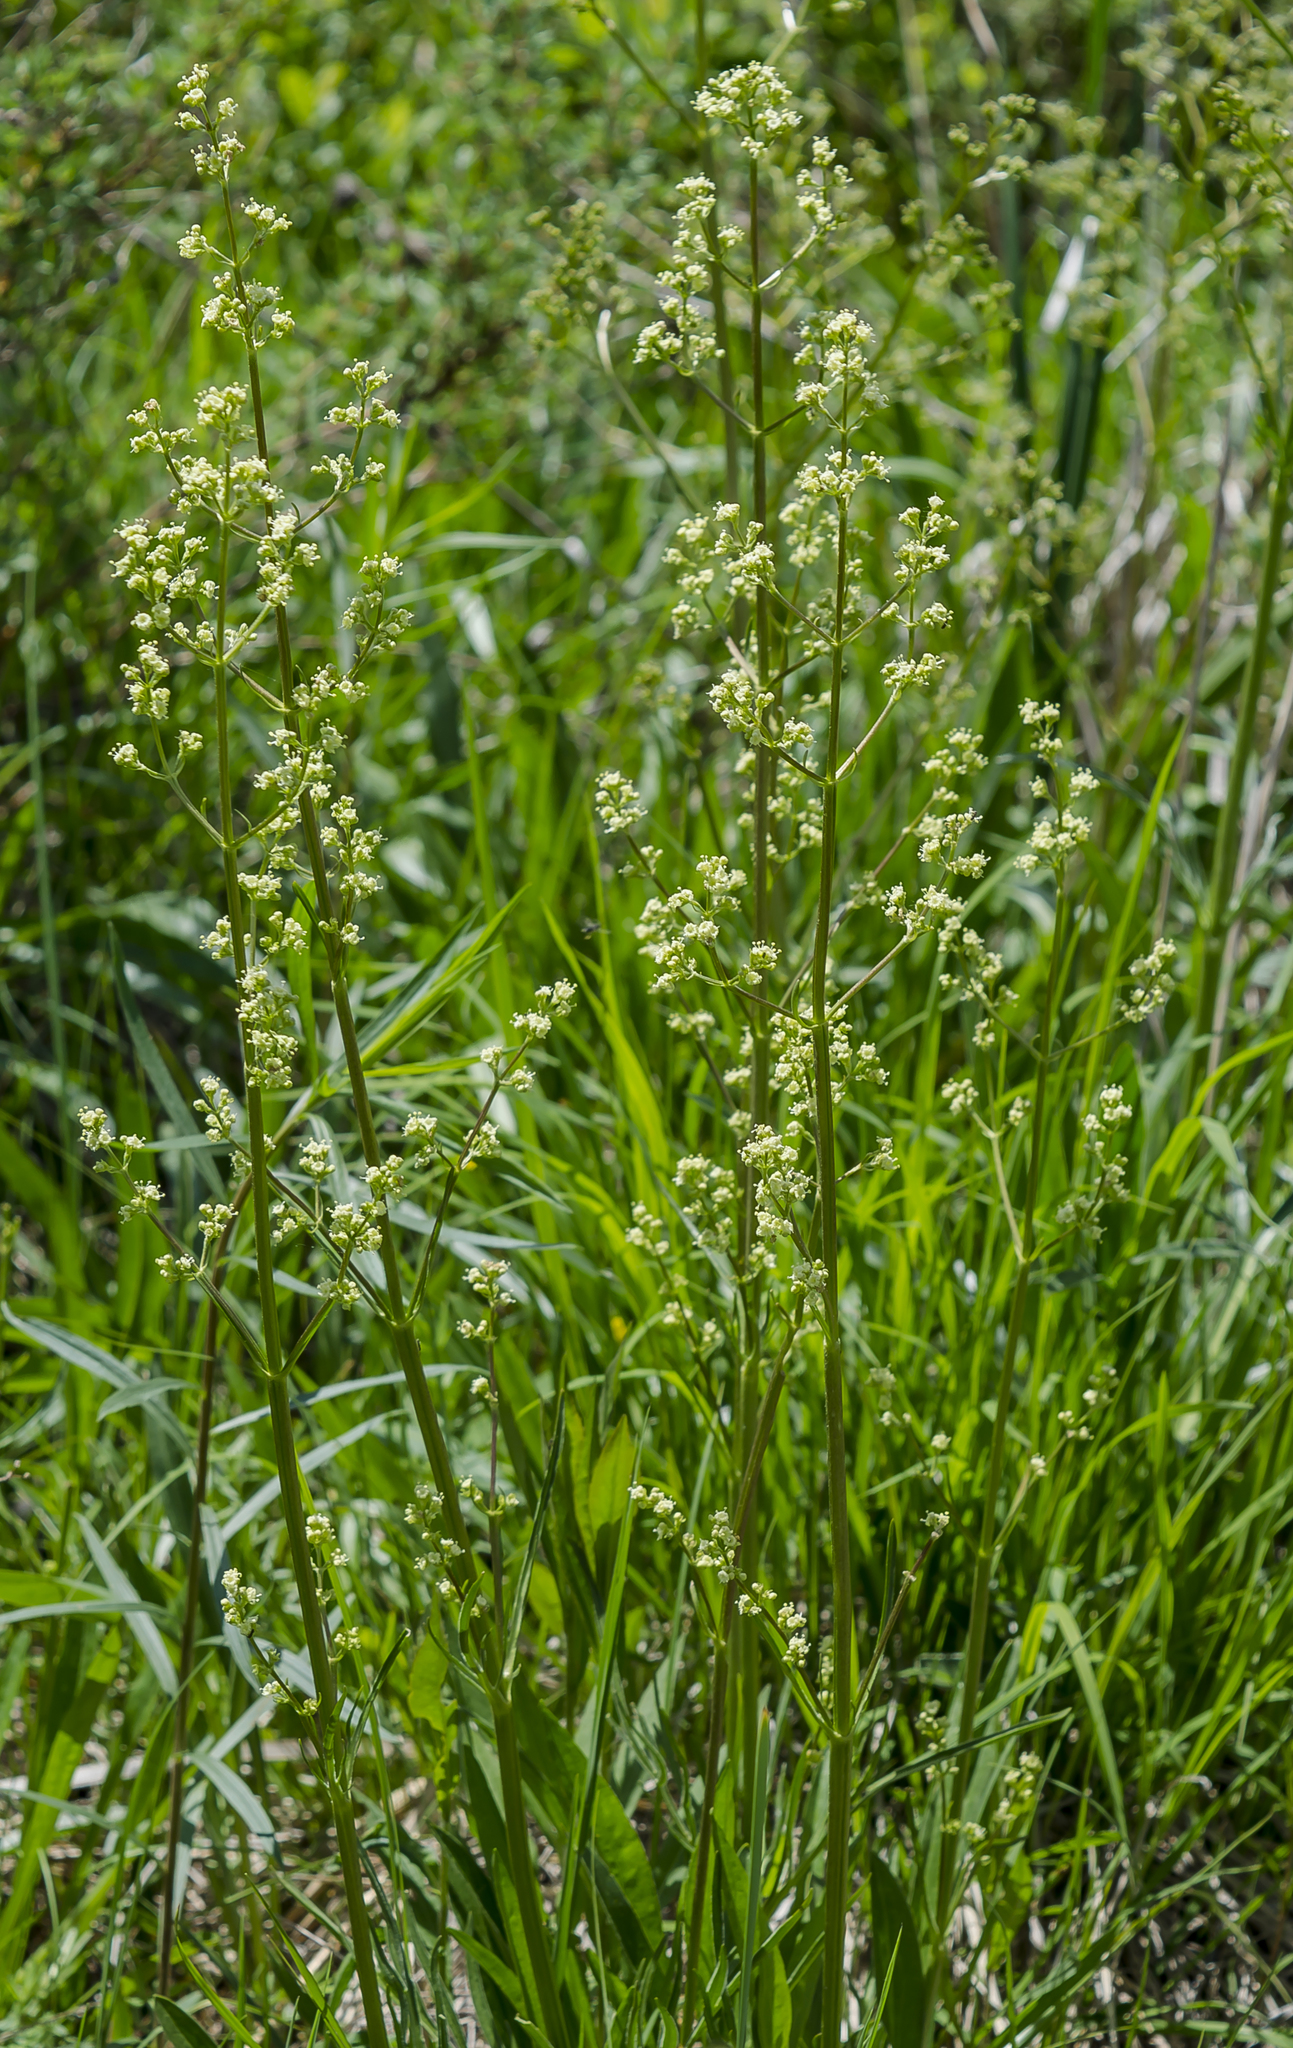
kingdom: Plantae
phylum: Tracheophyta
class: Magnoliopsida
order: Dipsacales
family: Caprifoliaceae
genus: Valeriana
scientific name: Valeriana edulis
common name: Taproot valerian
